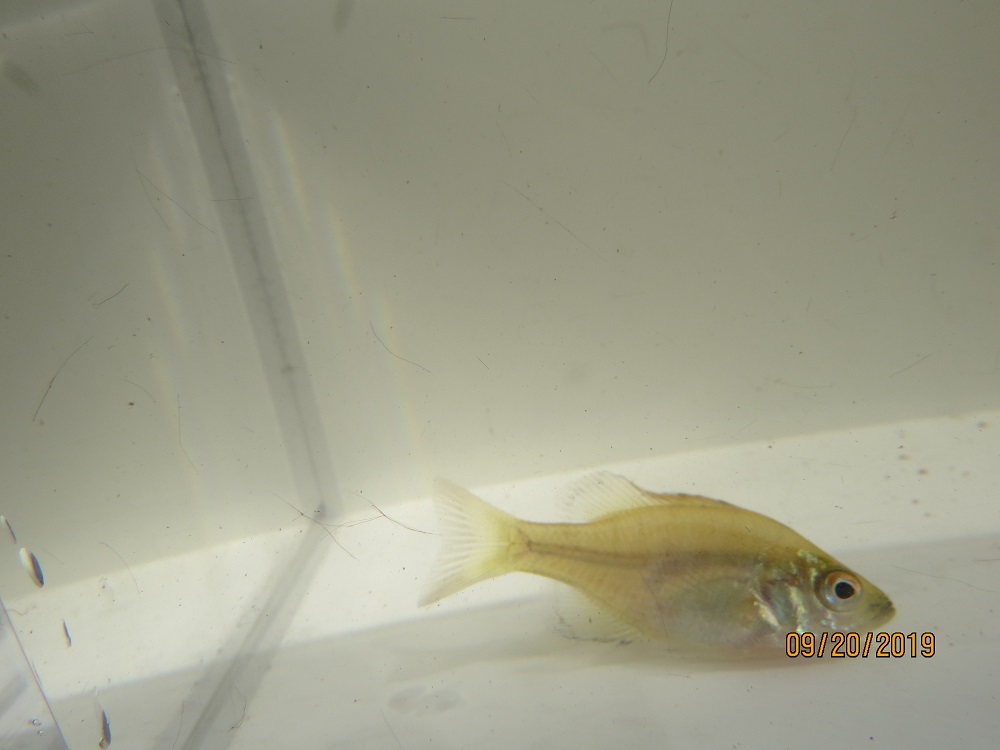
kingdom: Animalia
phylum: Chordata
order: Perciformes
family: Centrarchidae
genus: Lepomis
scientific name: Lepomis macrochirus
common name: Bluegill
